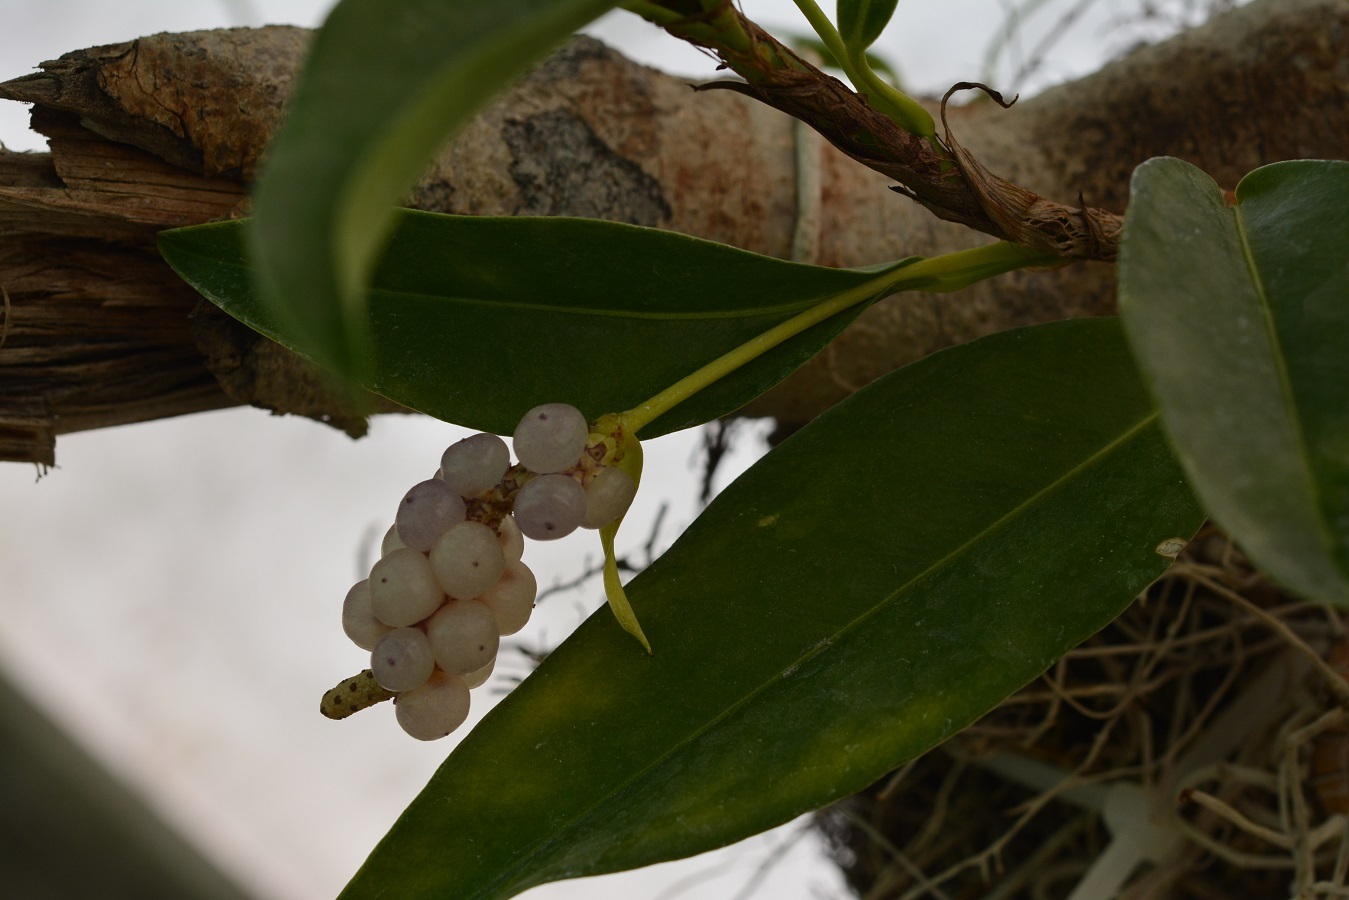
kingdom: Plantae
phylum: Tracheophyta
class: Liliopsida
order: Alismatales
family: Araceae
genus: Anthurium
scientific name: Anthurium scandens
